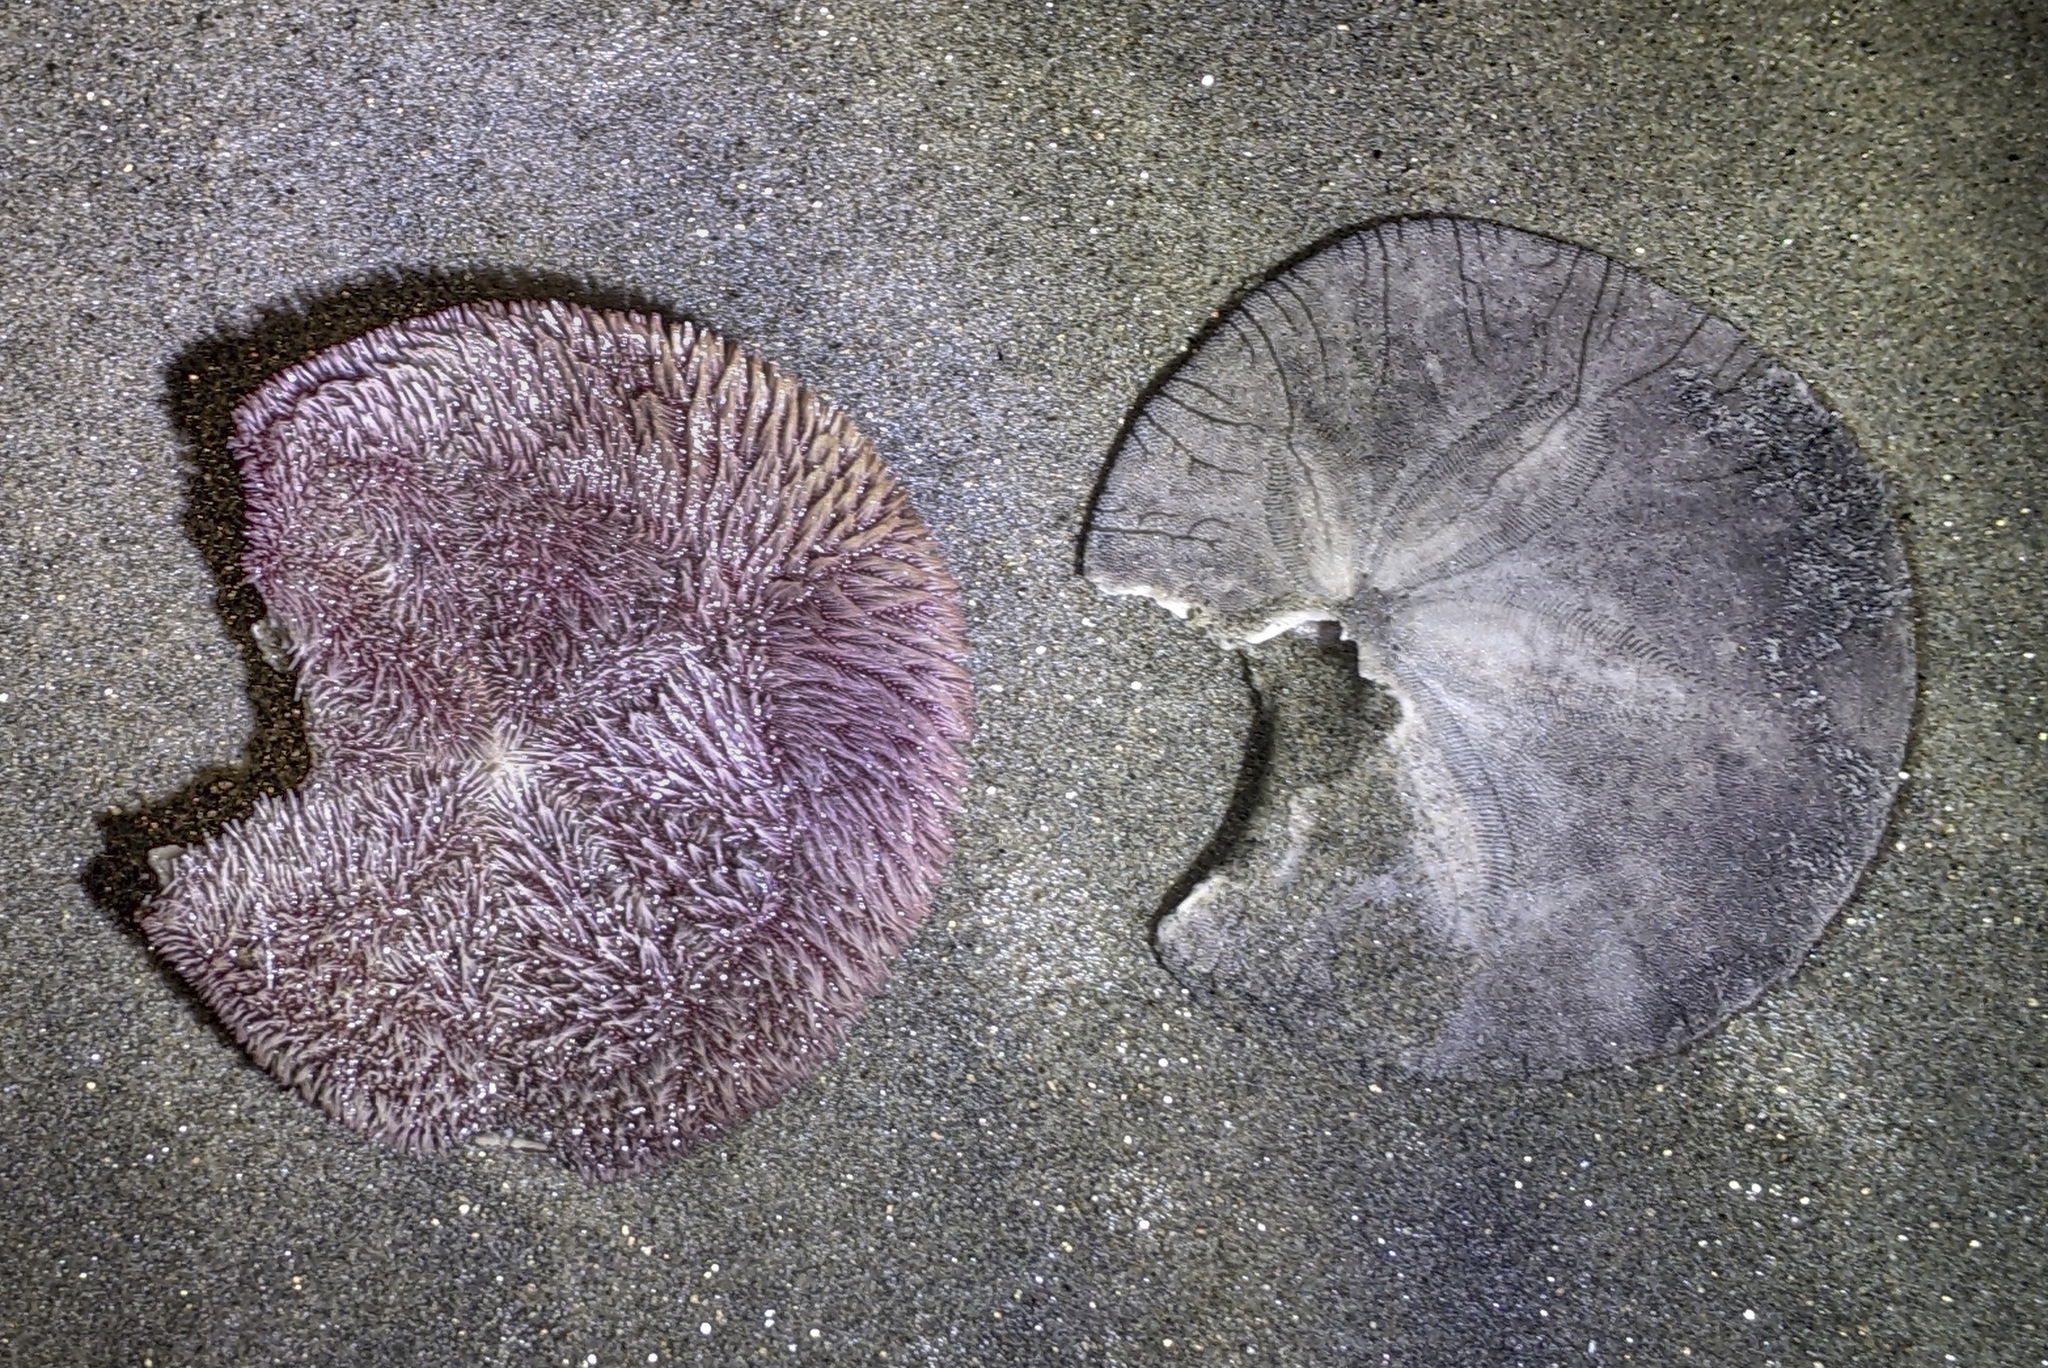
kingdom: Animalia
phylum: Echinodermata
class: Echinoidea
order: Echinolampadacea
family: Dendrasteridae
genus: Dendraster
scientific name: Dendraster excentricus
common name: Eccentric sand dollar sea urchin
